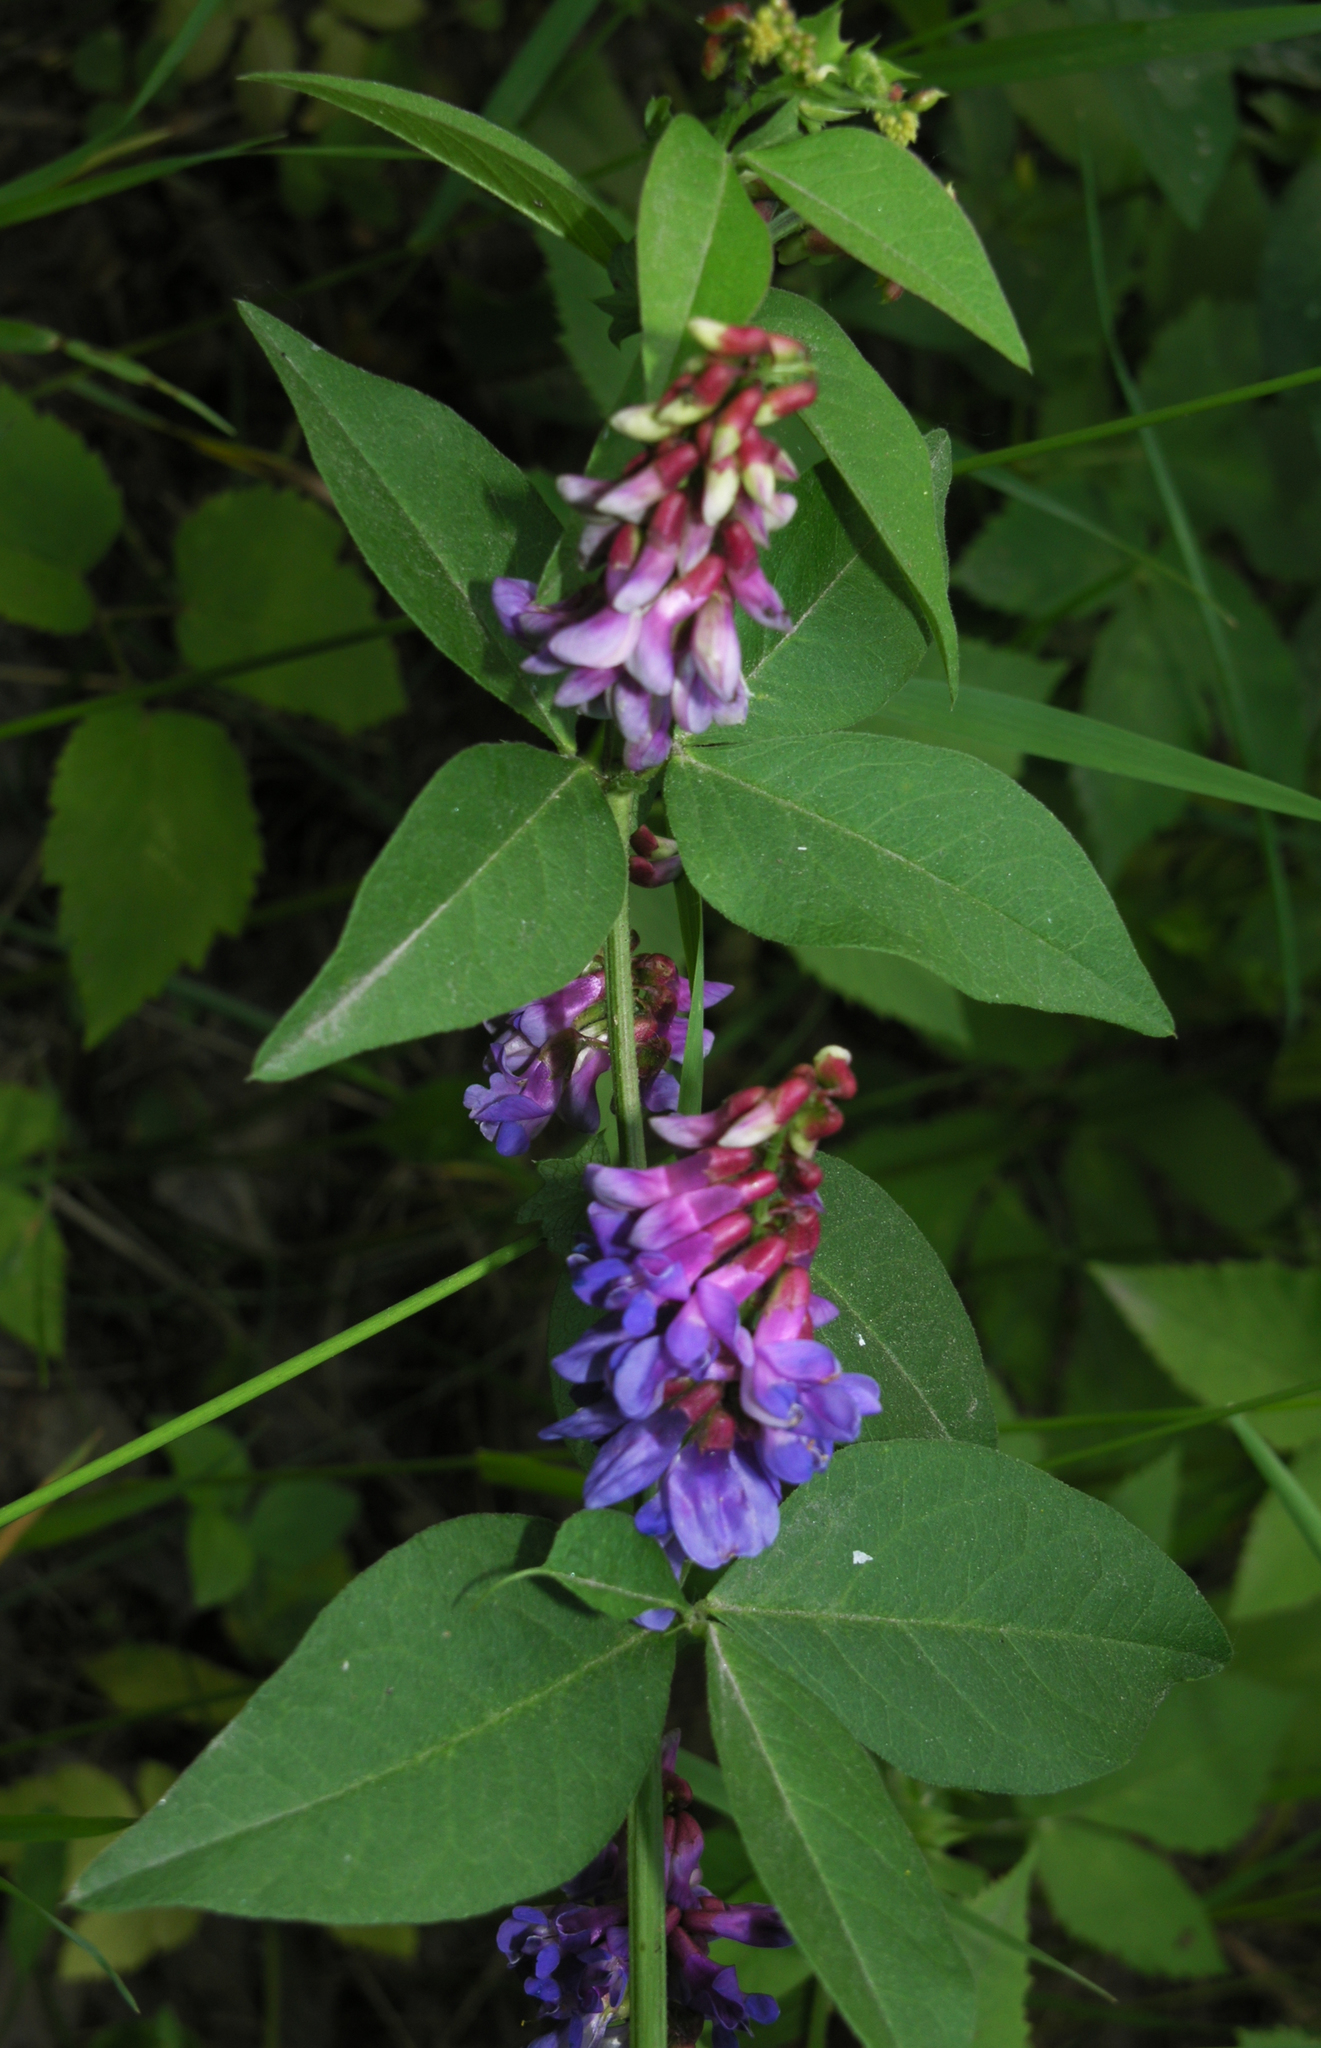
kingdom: Plantae
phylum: Tracheophyta
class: Magnoliopsida
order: Fabales
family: Fabaceae
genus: Vicia
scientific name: Vicia unijuga
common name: Two-leaf vetch
